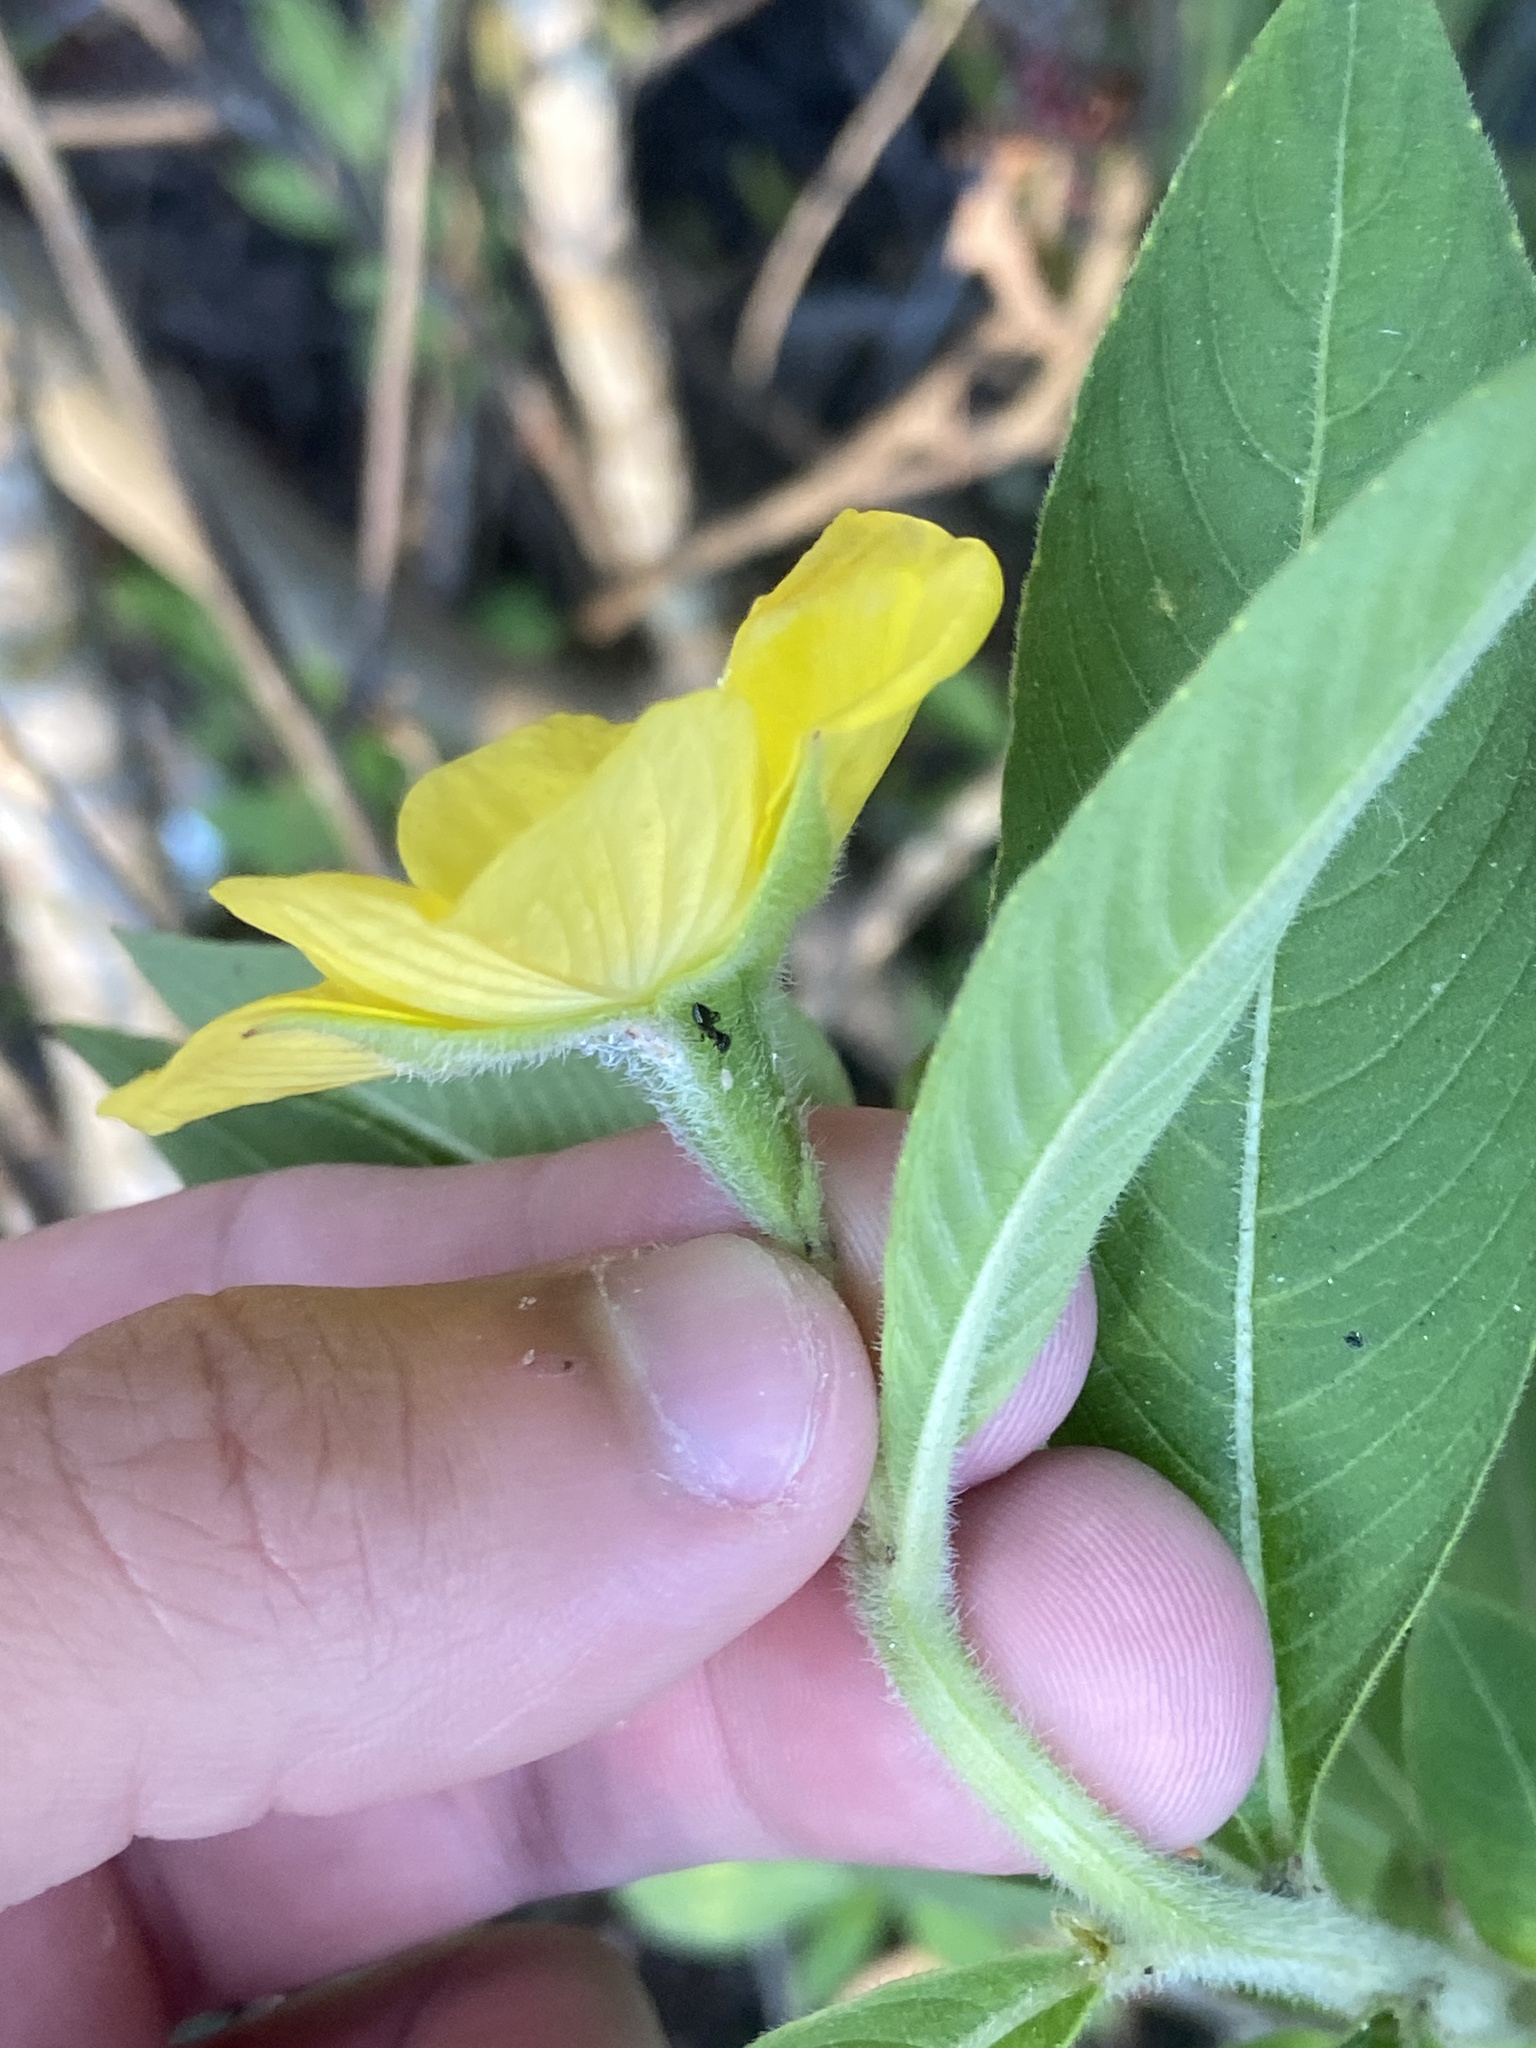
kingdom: Plantae
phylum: Tracheophyta
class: Magnoliopsida
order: Myrtales
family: Onagraceae
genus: Ludwigia
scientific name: Ludwigia peruviana
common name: Peruvian primrose-willow
